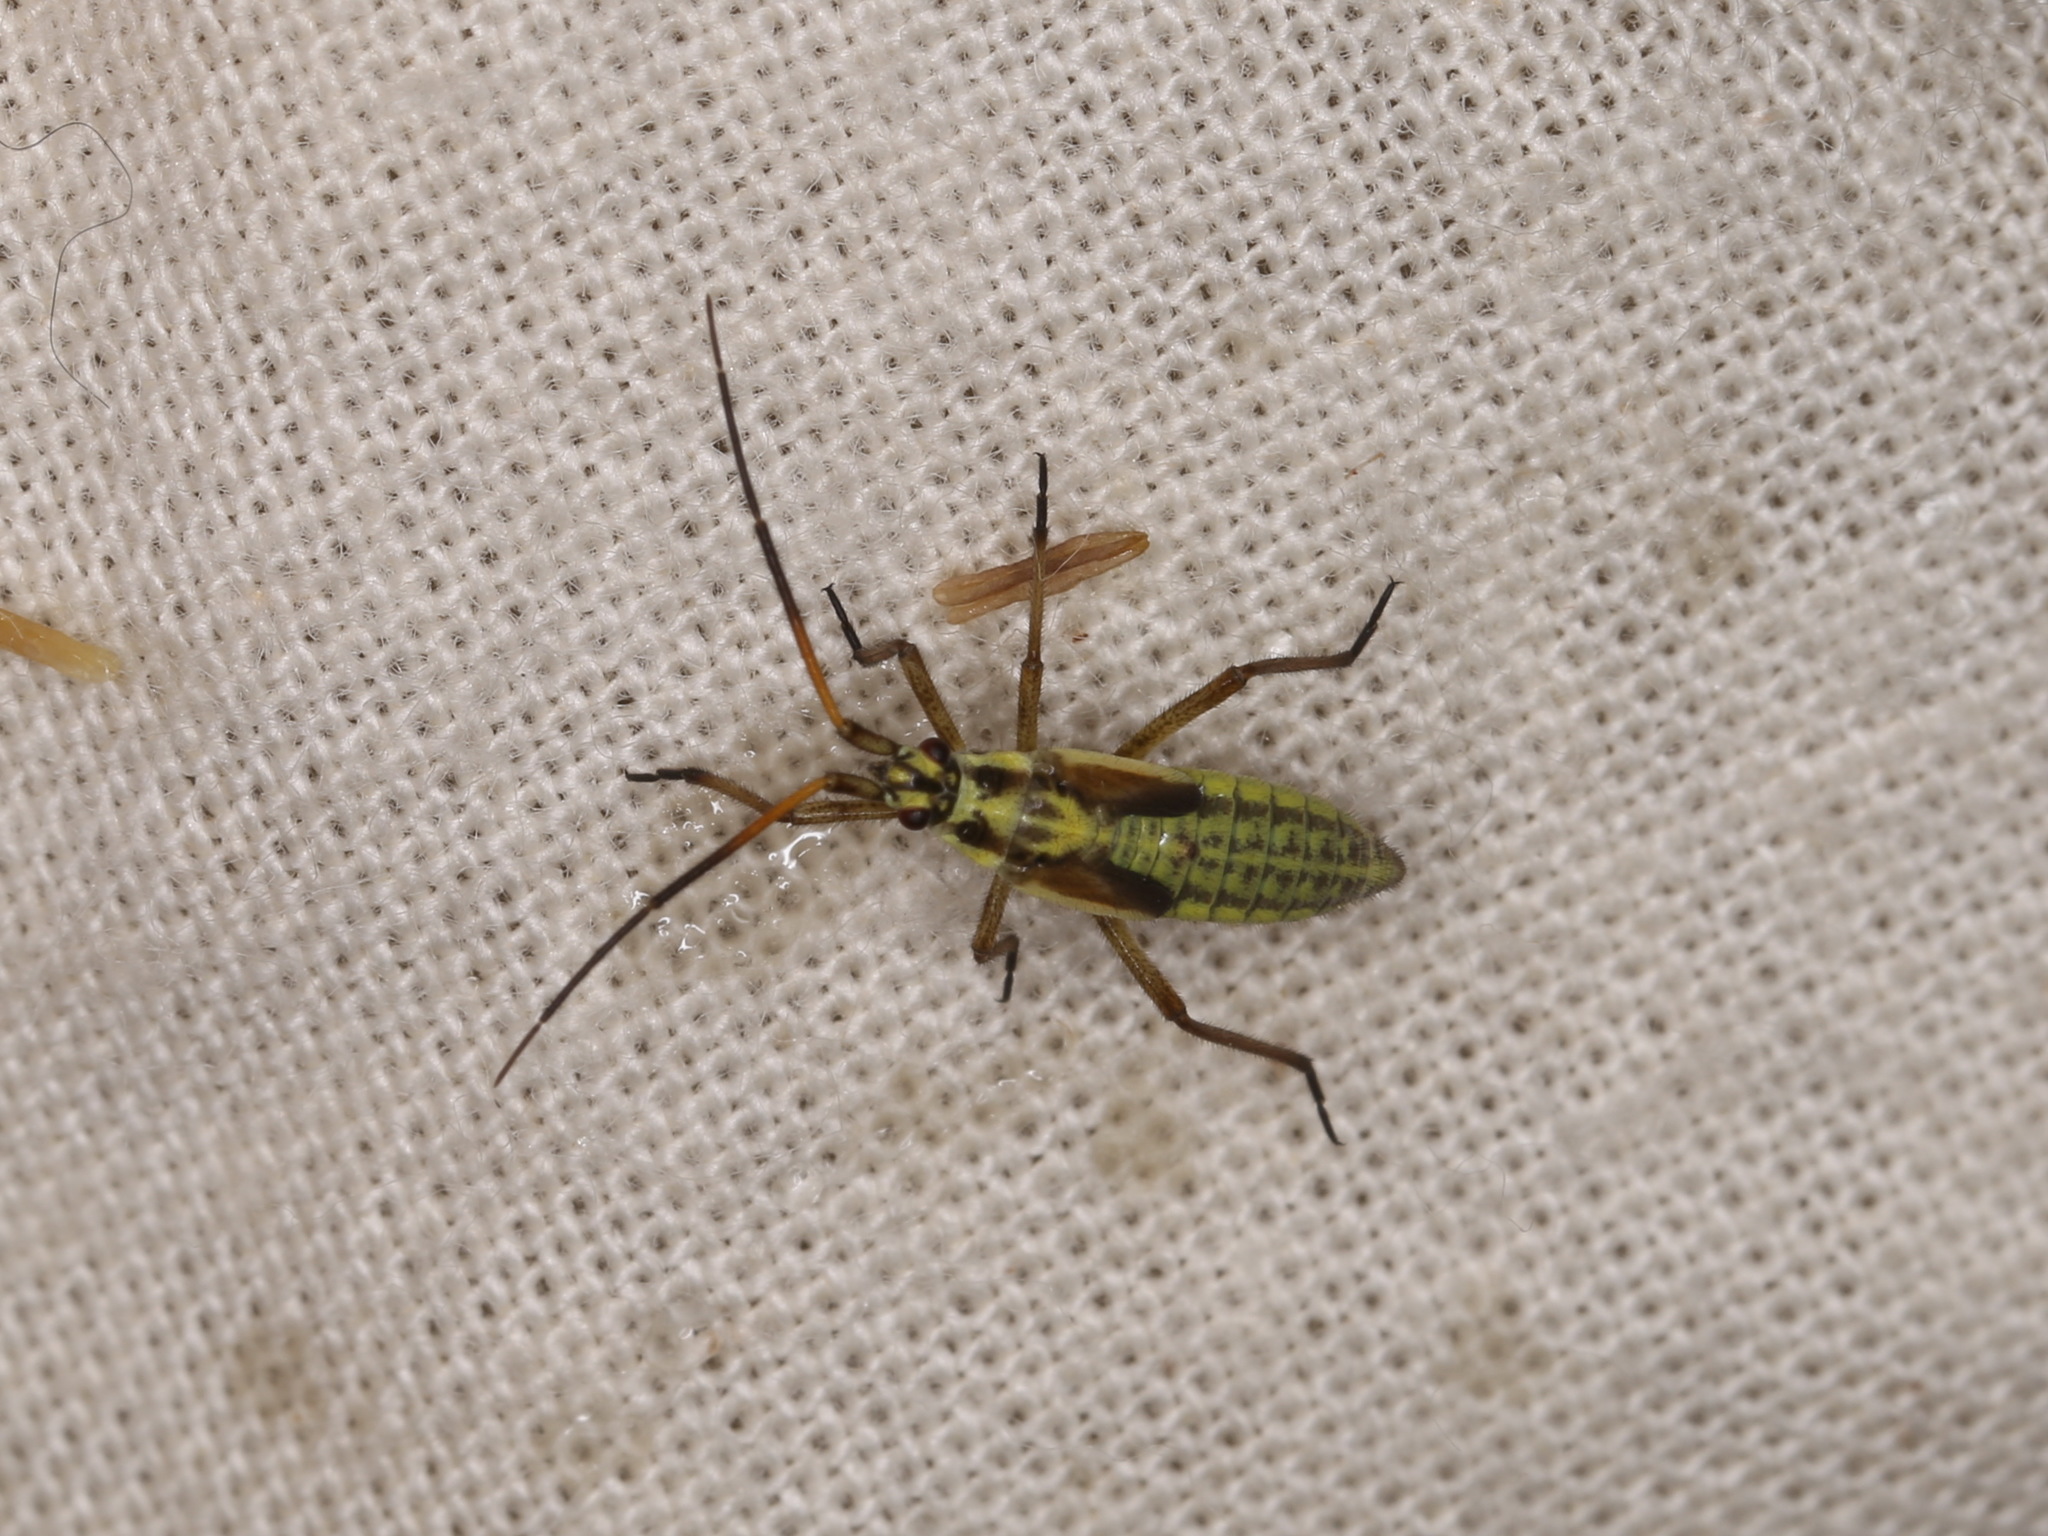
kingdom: Animalia
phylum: Arthropoda
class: Insecta
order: Hemiptera
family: Miridae
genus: Leptopterna
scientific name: Leptopterna dolabrata
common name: Meadow plant bug
